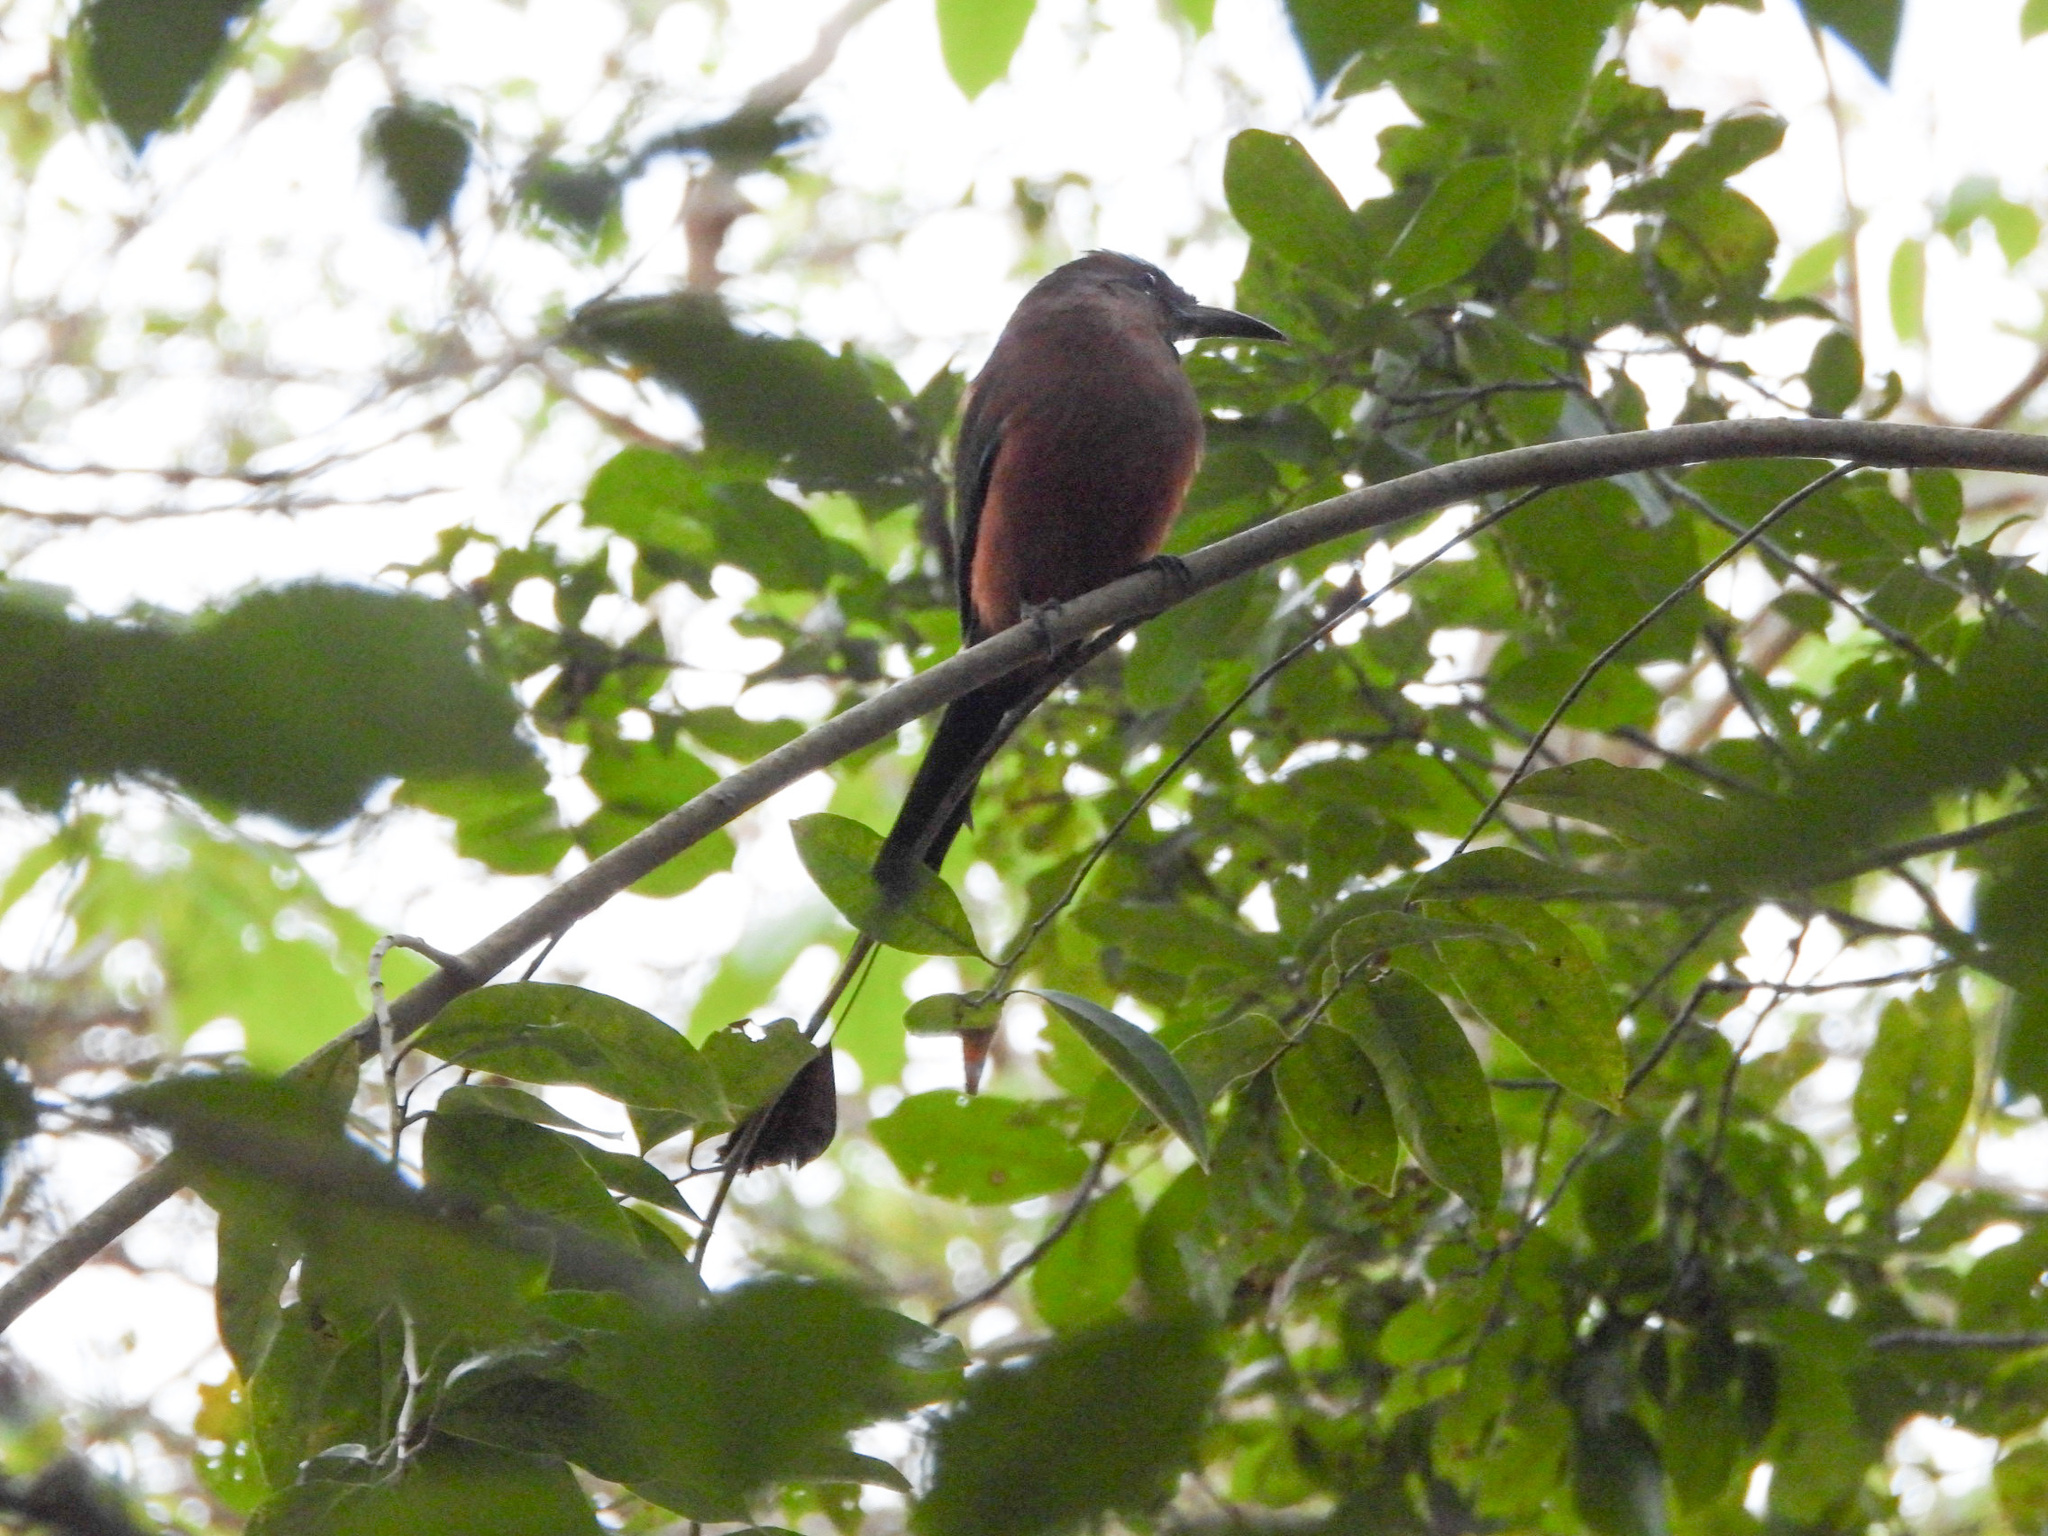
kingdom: Animalia
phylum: Chordata
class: Aves
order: Coraciiformes
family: Momotidae
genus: Eumomota
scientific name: Eumomota superciliosa
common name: Turquoise-browed motmot
